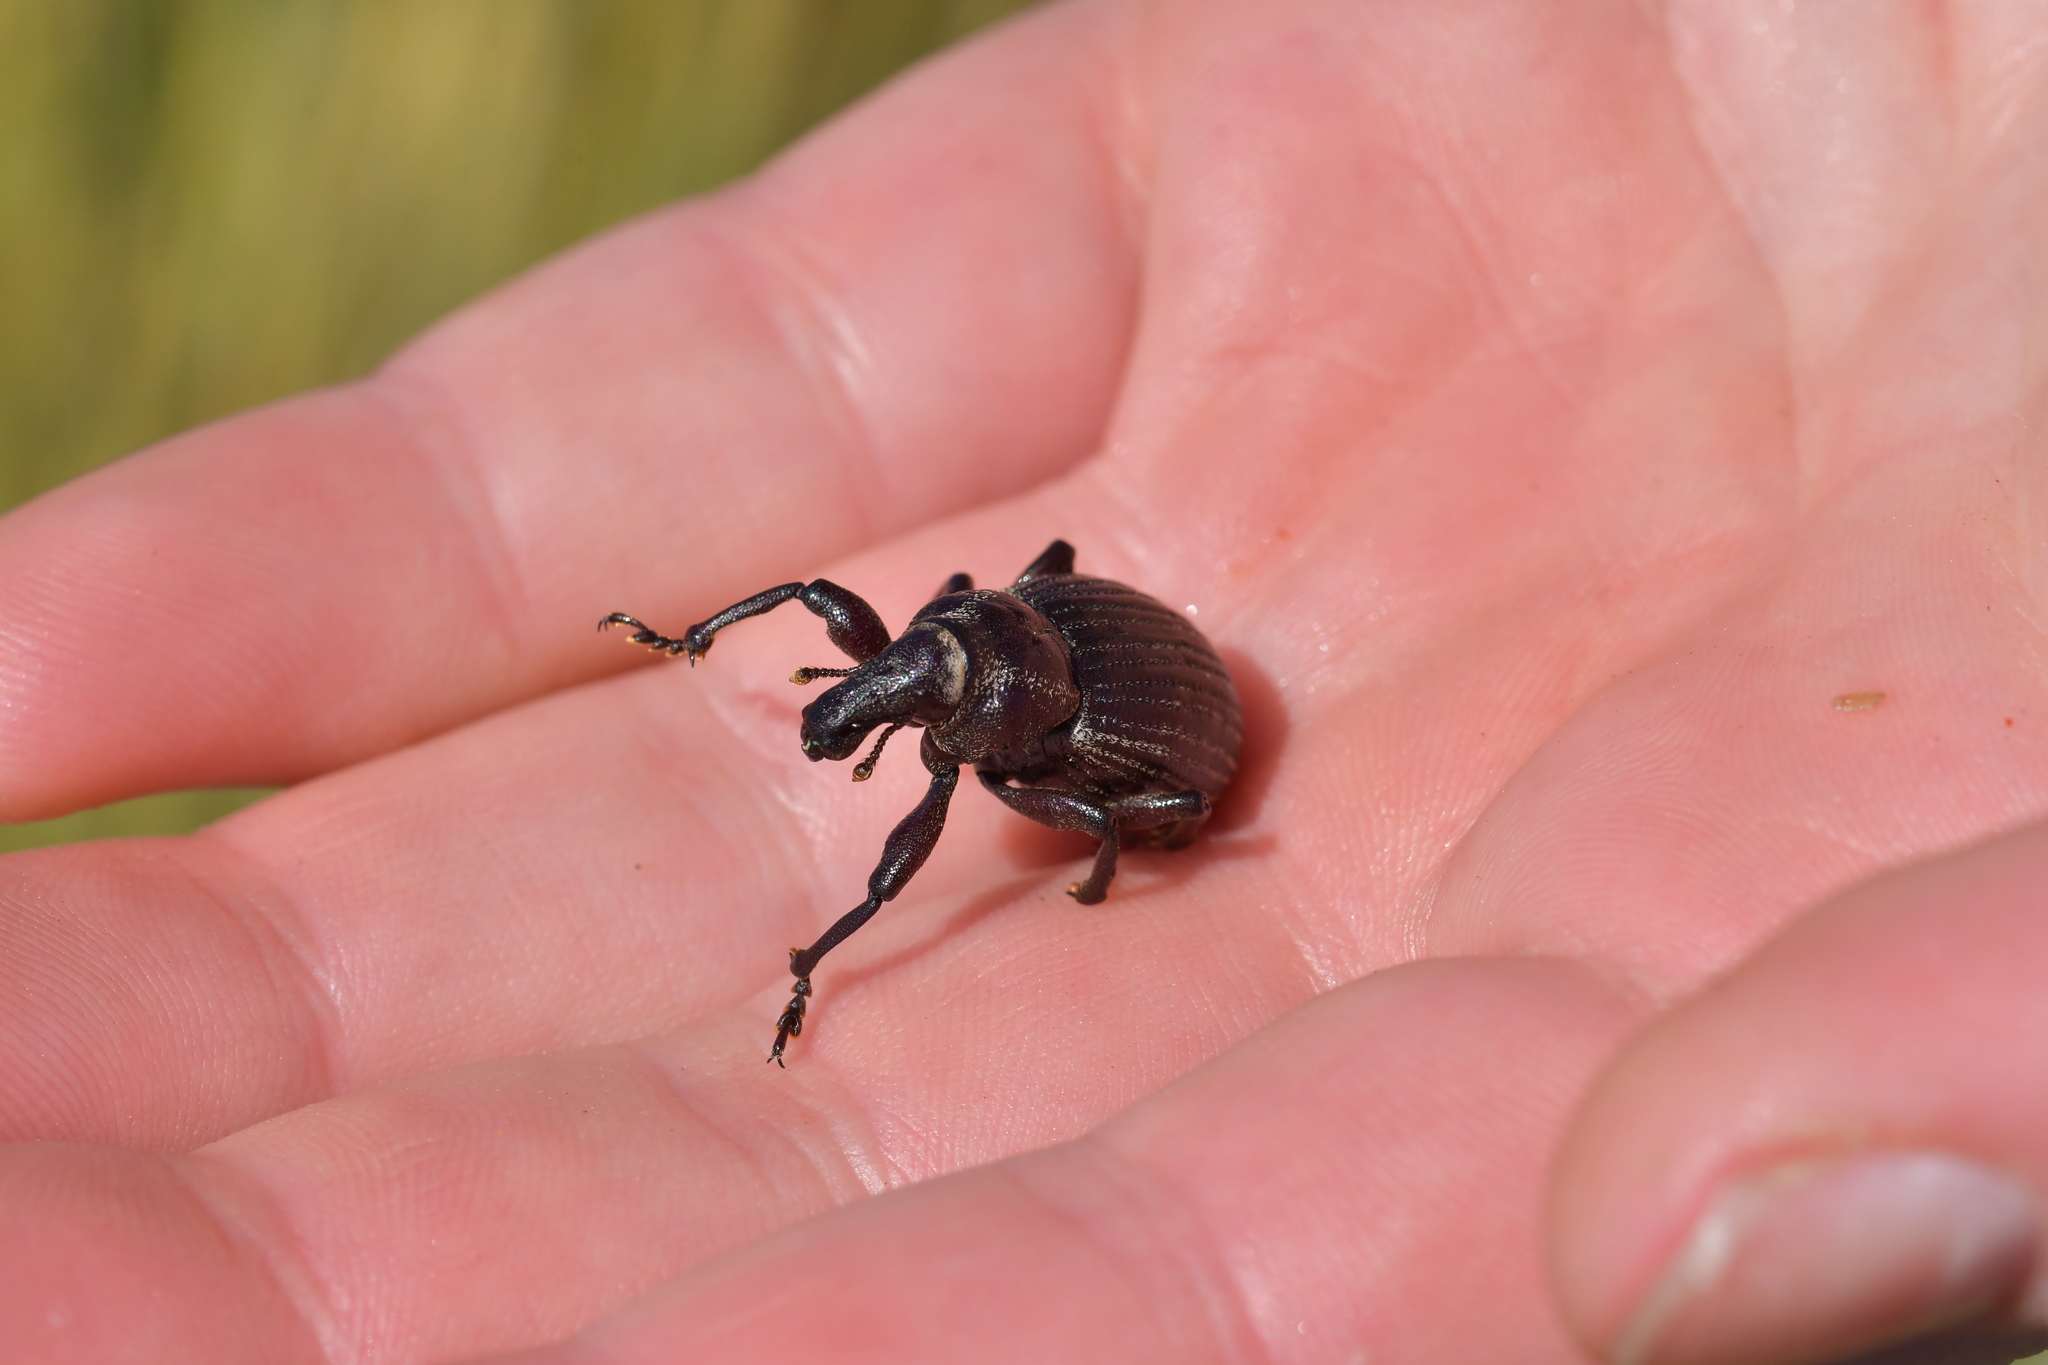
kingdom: Animalia
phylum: Arthropoda
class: Insecta
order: Coleoptera
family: Curculionidae
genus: Lyperobius
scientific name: Lyperobius huttoni
